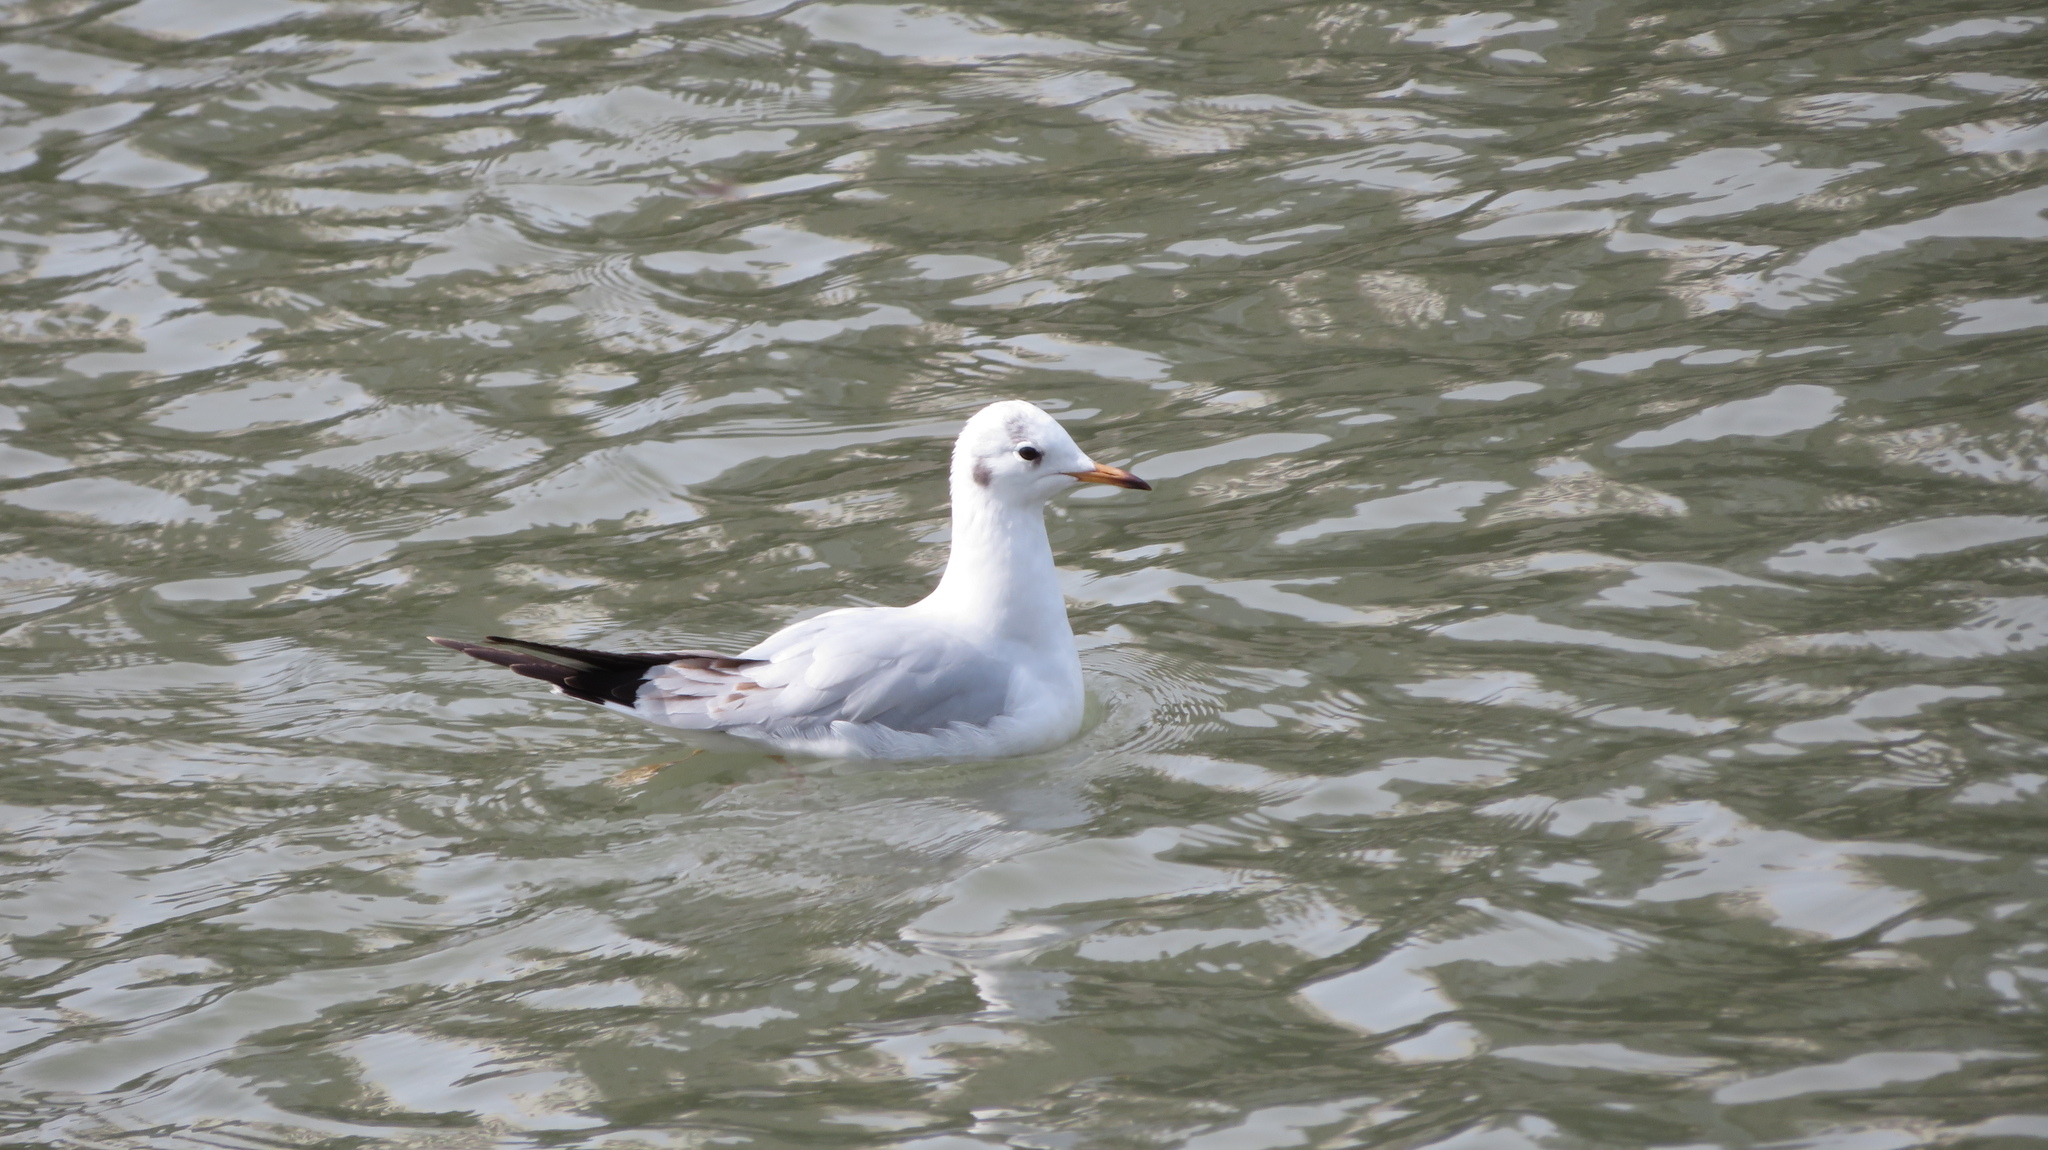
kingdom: Animalia
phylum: Chordata
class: Aves
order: Charadriiformes
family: Laridae
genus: Chroicocephalus
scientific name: Chroicocephalus ridibundus
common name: Black-headed gull
